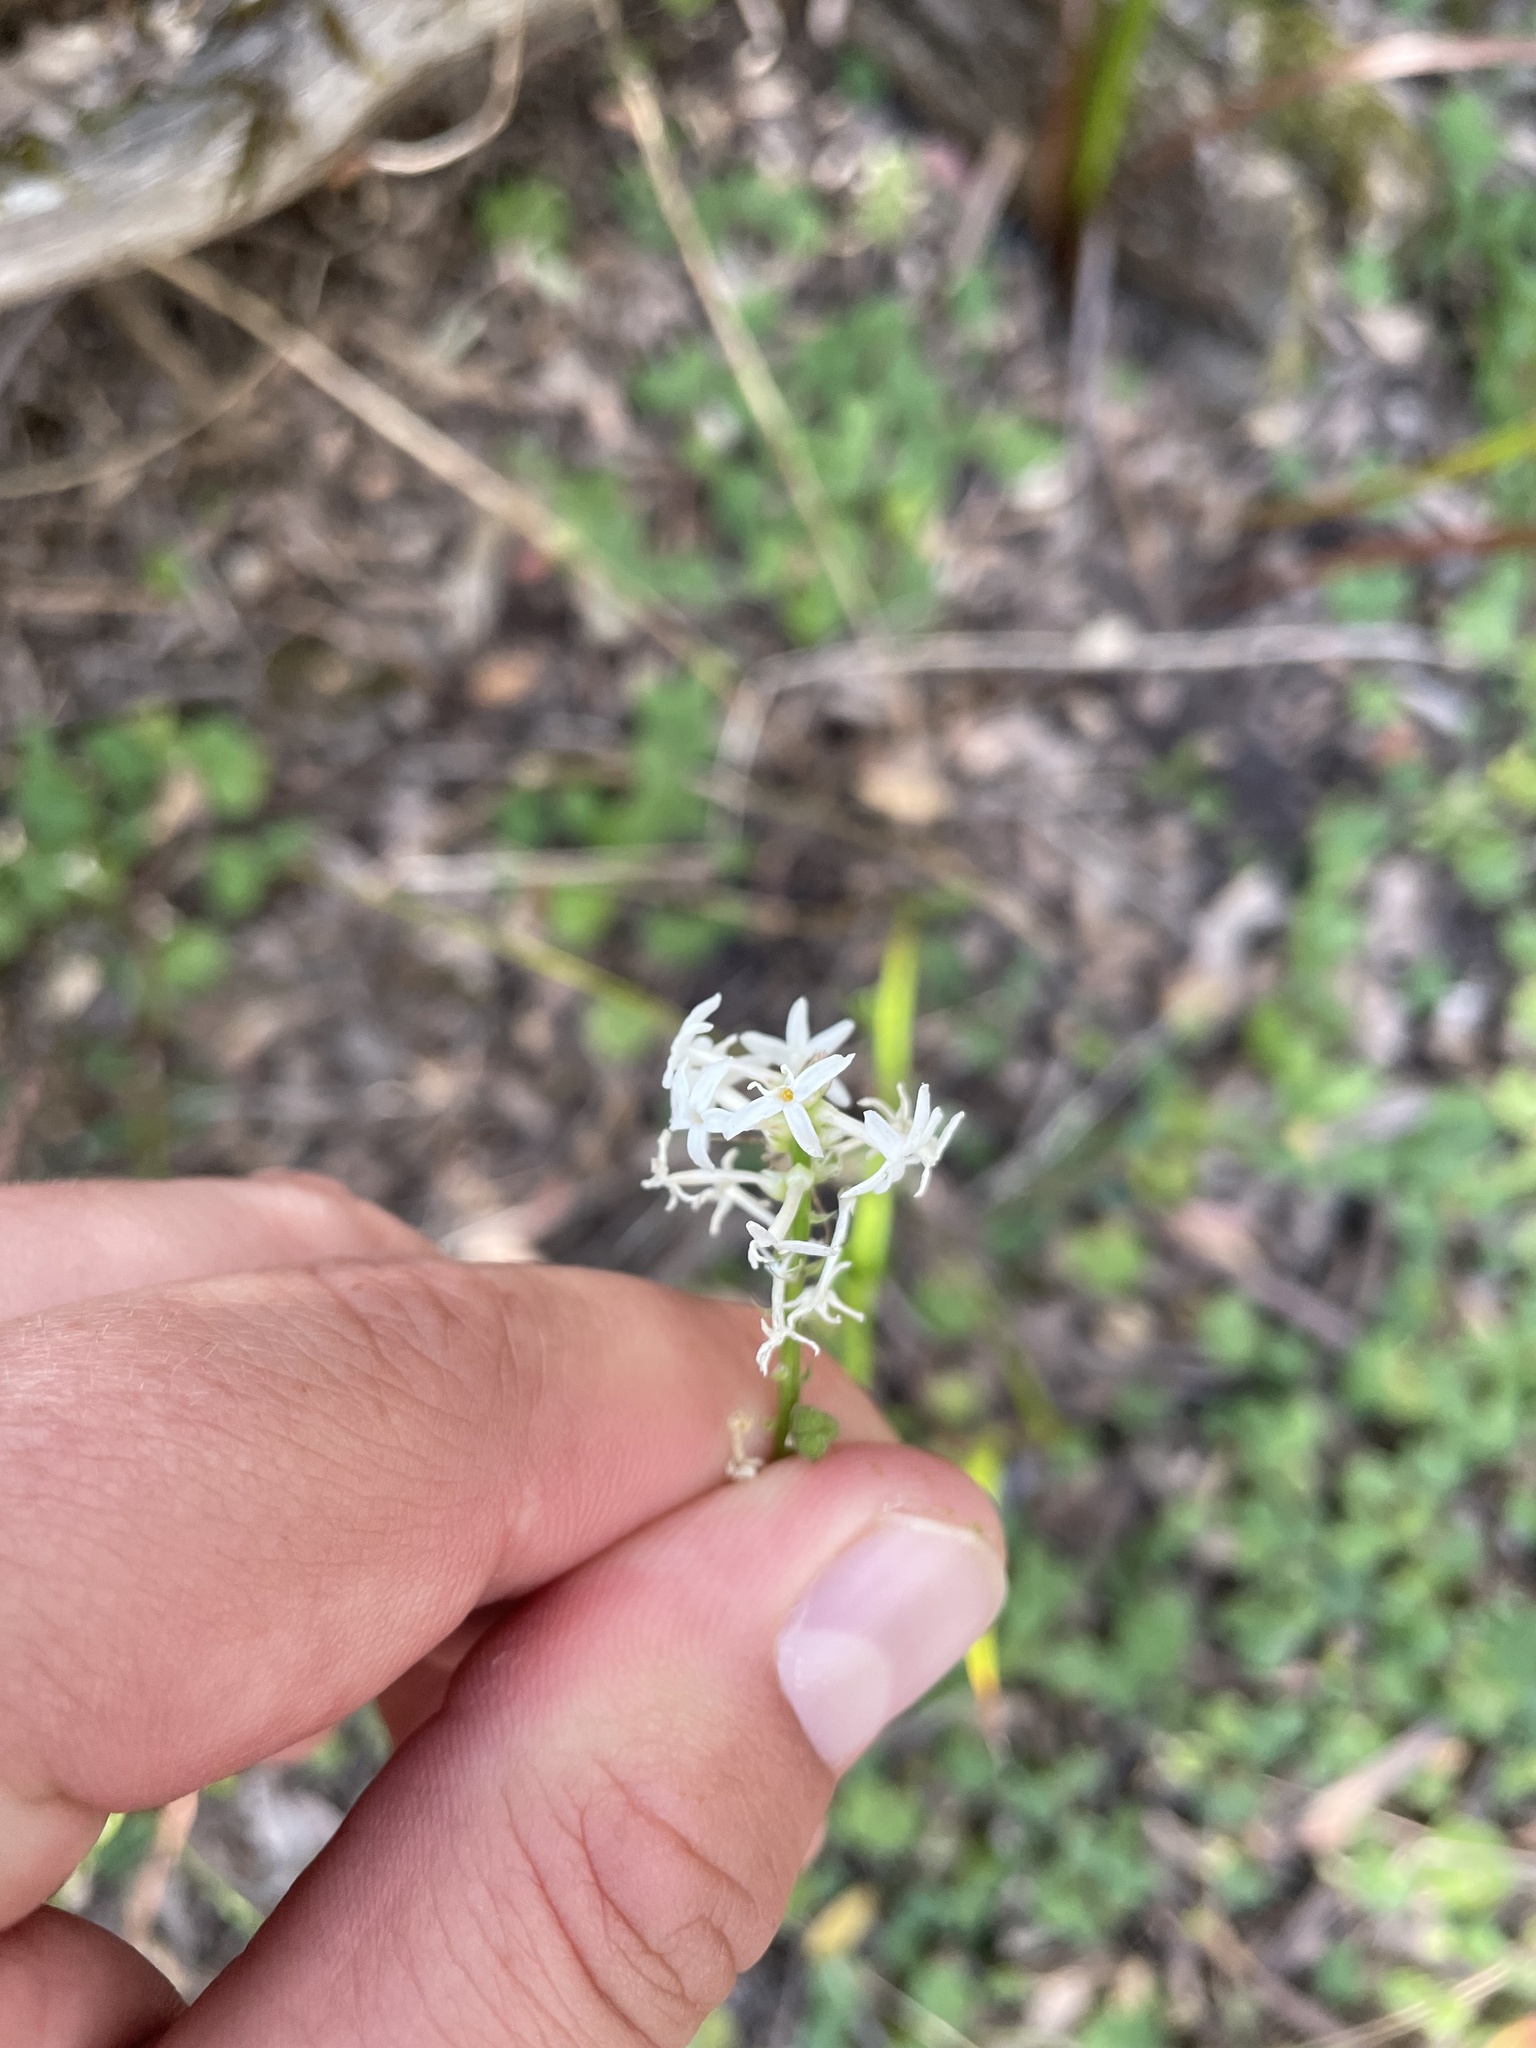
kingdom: Plantae
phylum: Tracheophyta
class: Magnoliopsida
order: Celastrales
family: Celastraceae
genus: Stackhousia
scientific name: Stackhousia monogyna
